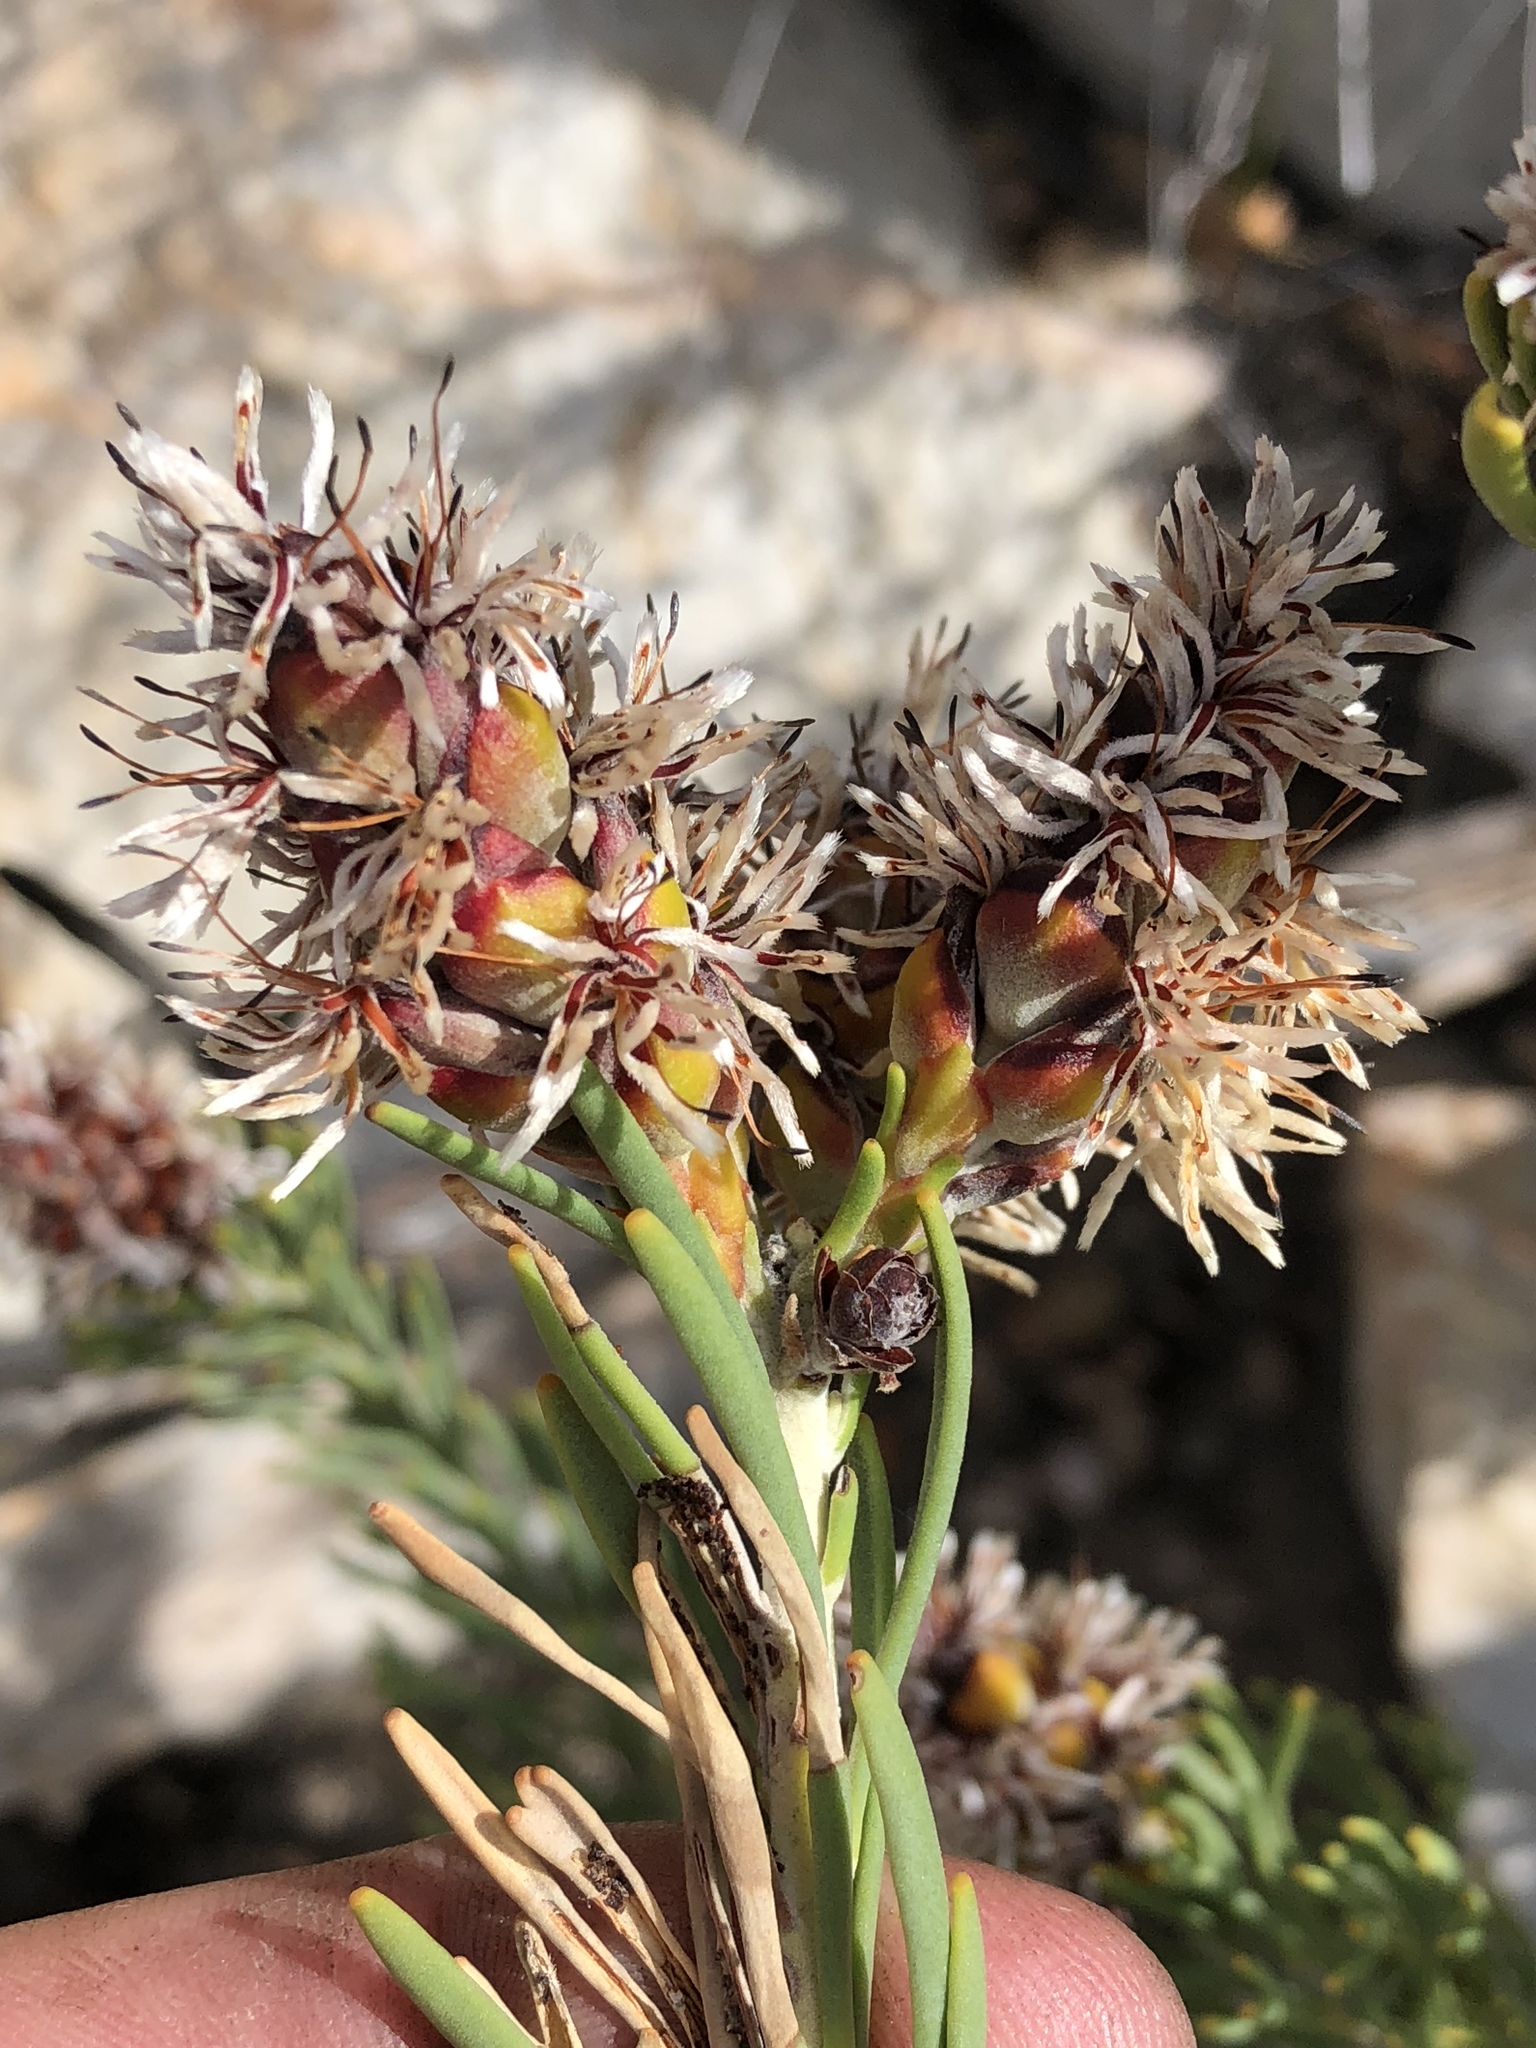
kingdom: Plantae
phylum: Tracheophyta
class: Magnoliopsida
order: Proteales
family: Proteaceae
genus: Paranomus
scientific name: Paranomus dregei
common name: Scented sceptre
